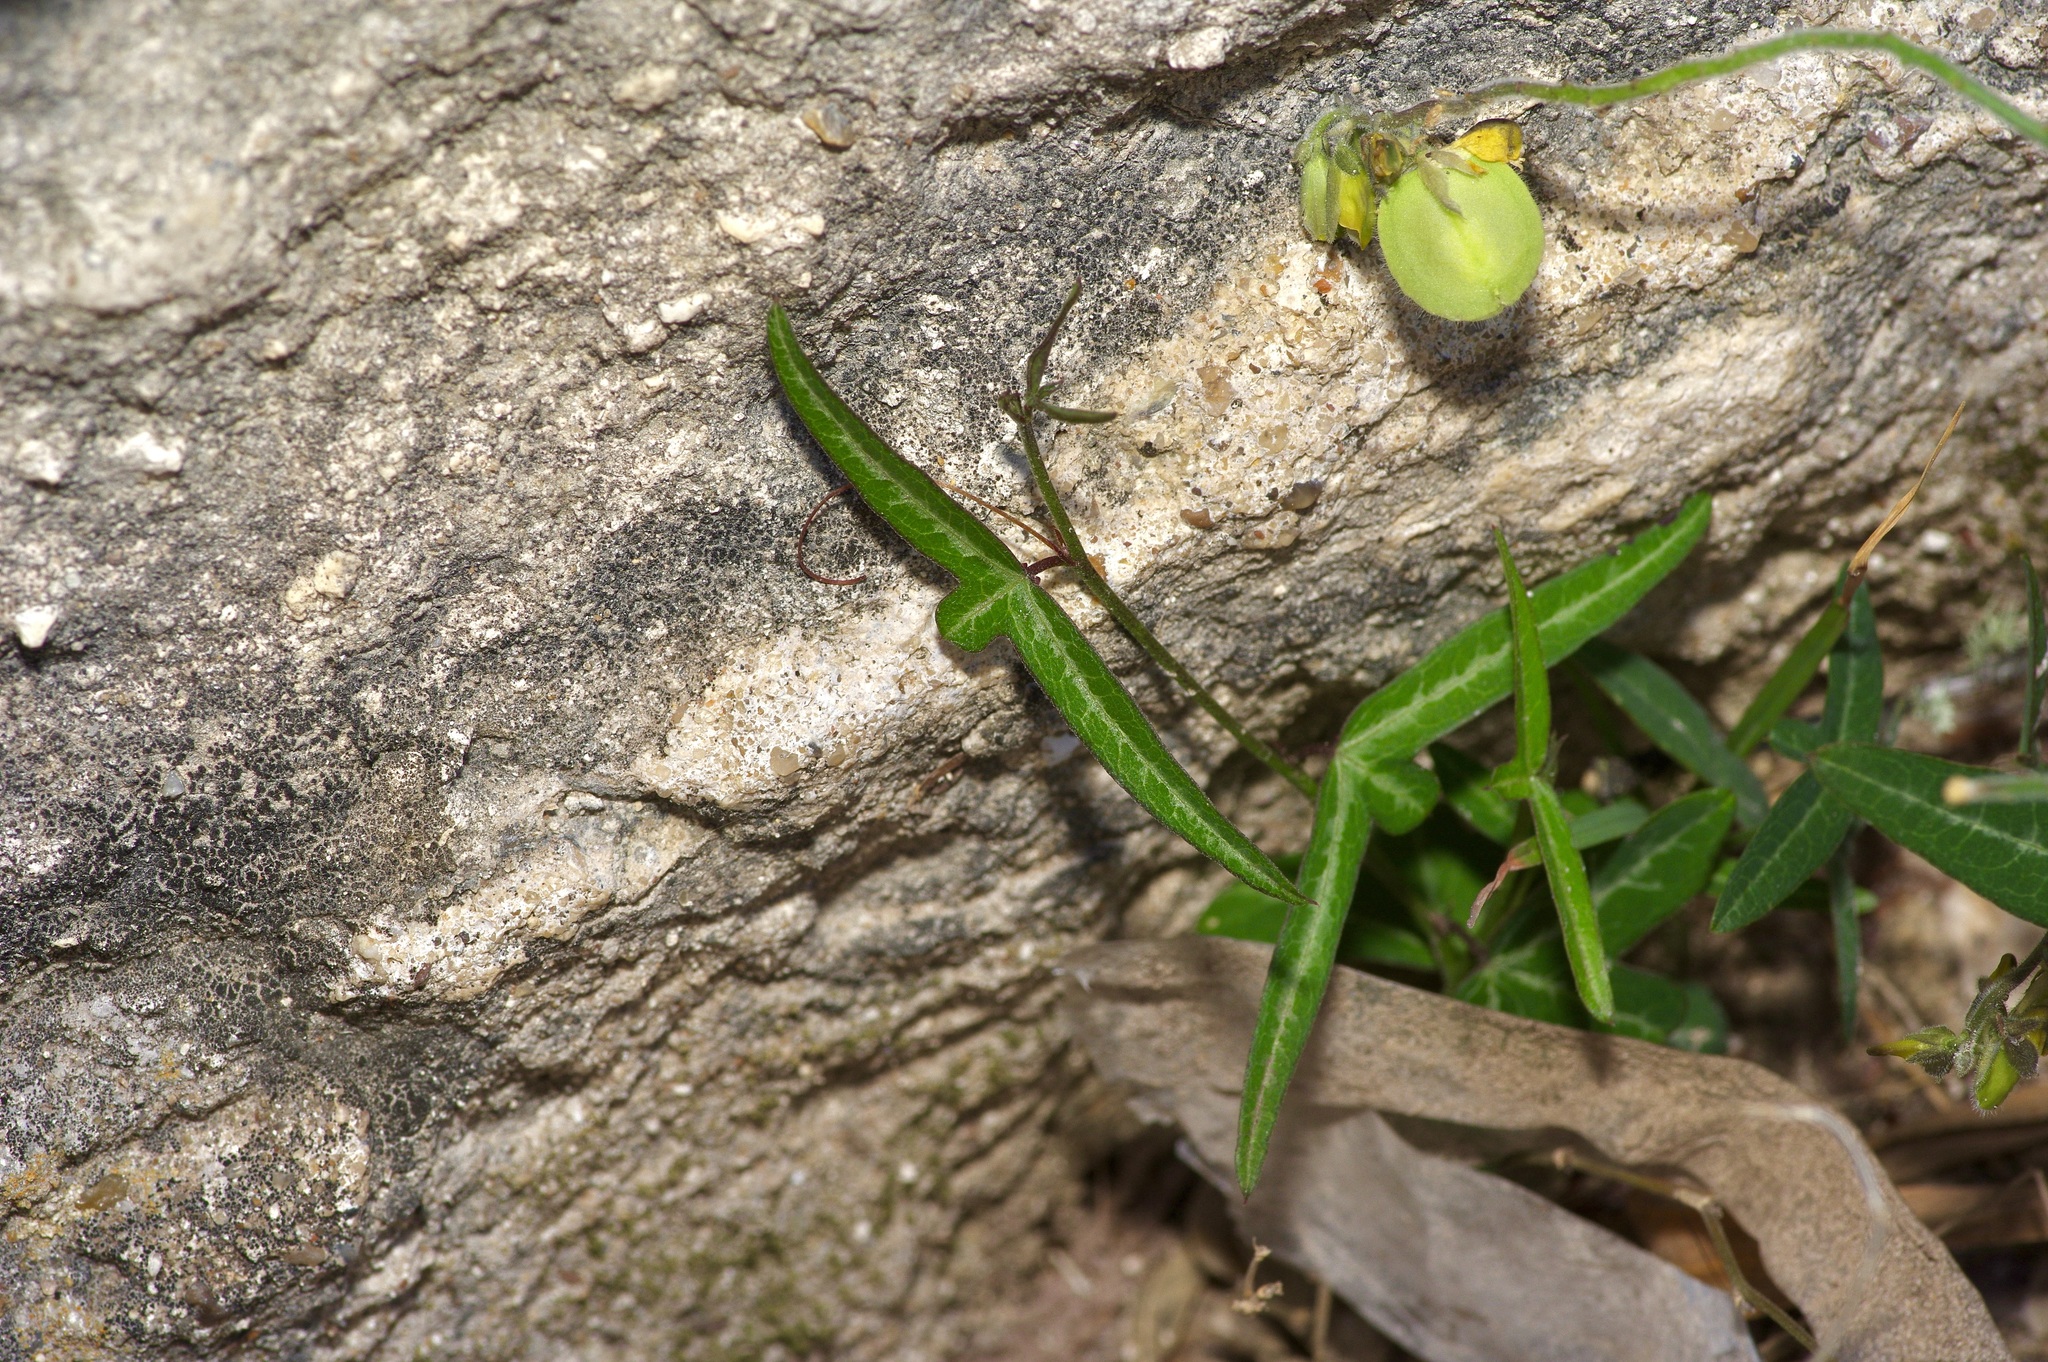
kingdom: Plantae
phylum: Tracheophyta
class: Magnoliopsida
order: Malpighiales
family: Passifloraceae
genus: Passiflora
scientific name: Passiflora tenuiloba
